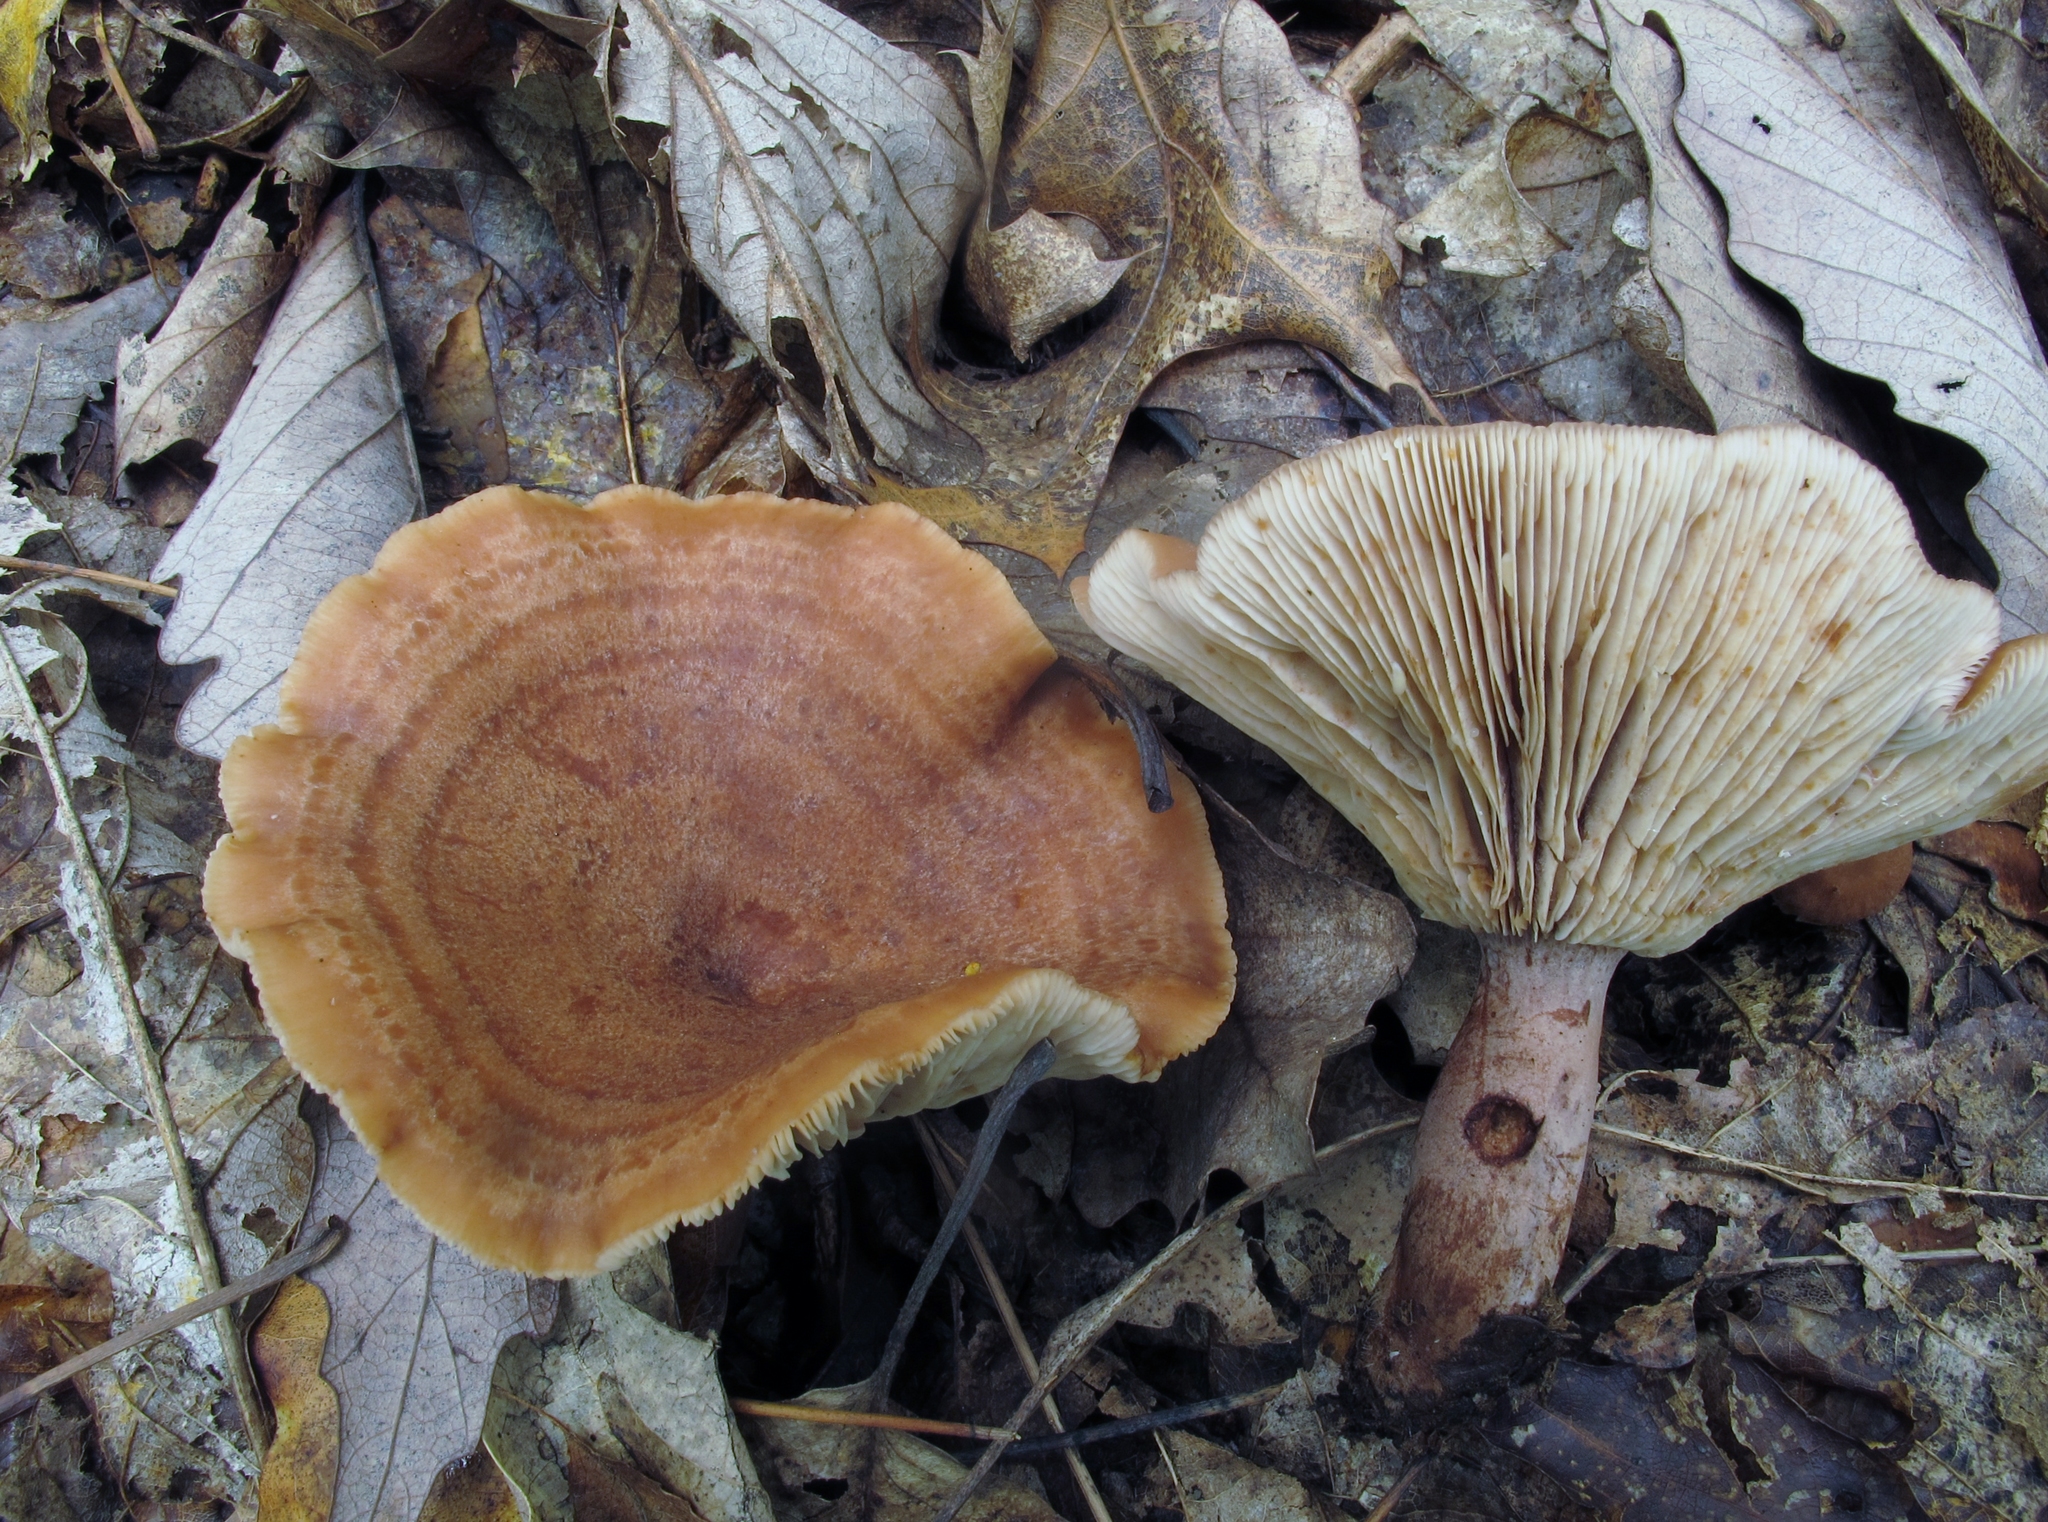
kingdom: Fungi
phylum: Basidiomycota
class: Agaricomycetes
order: Russulales
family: Russulaceae
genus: Lactarius
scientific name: Lactarius quietus
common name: Oak milk-cap
